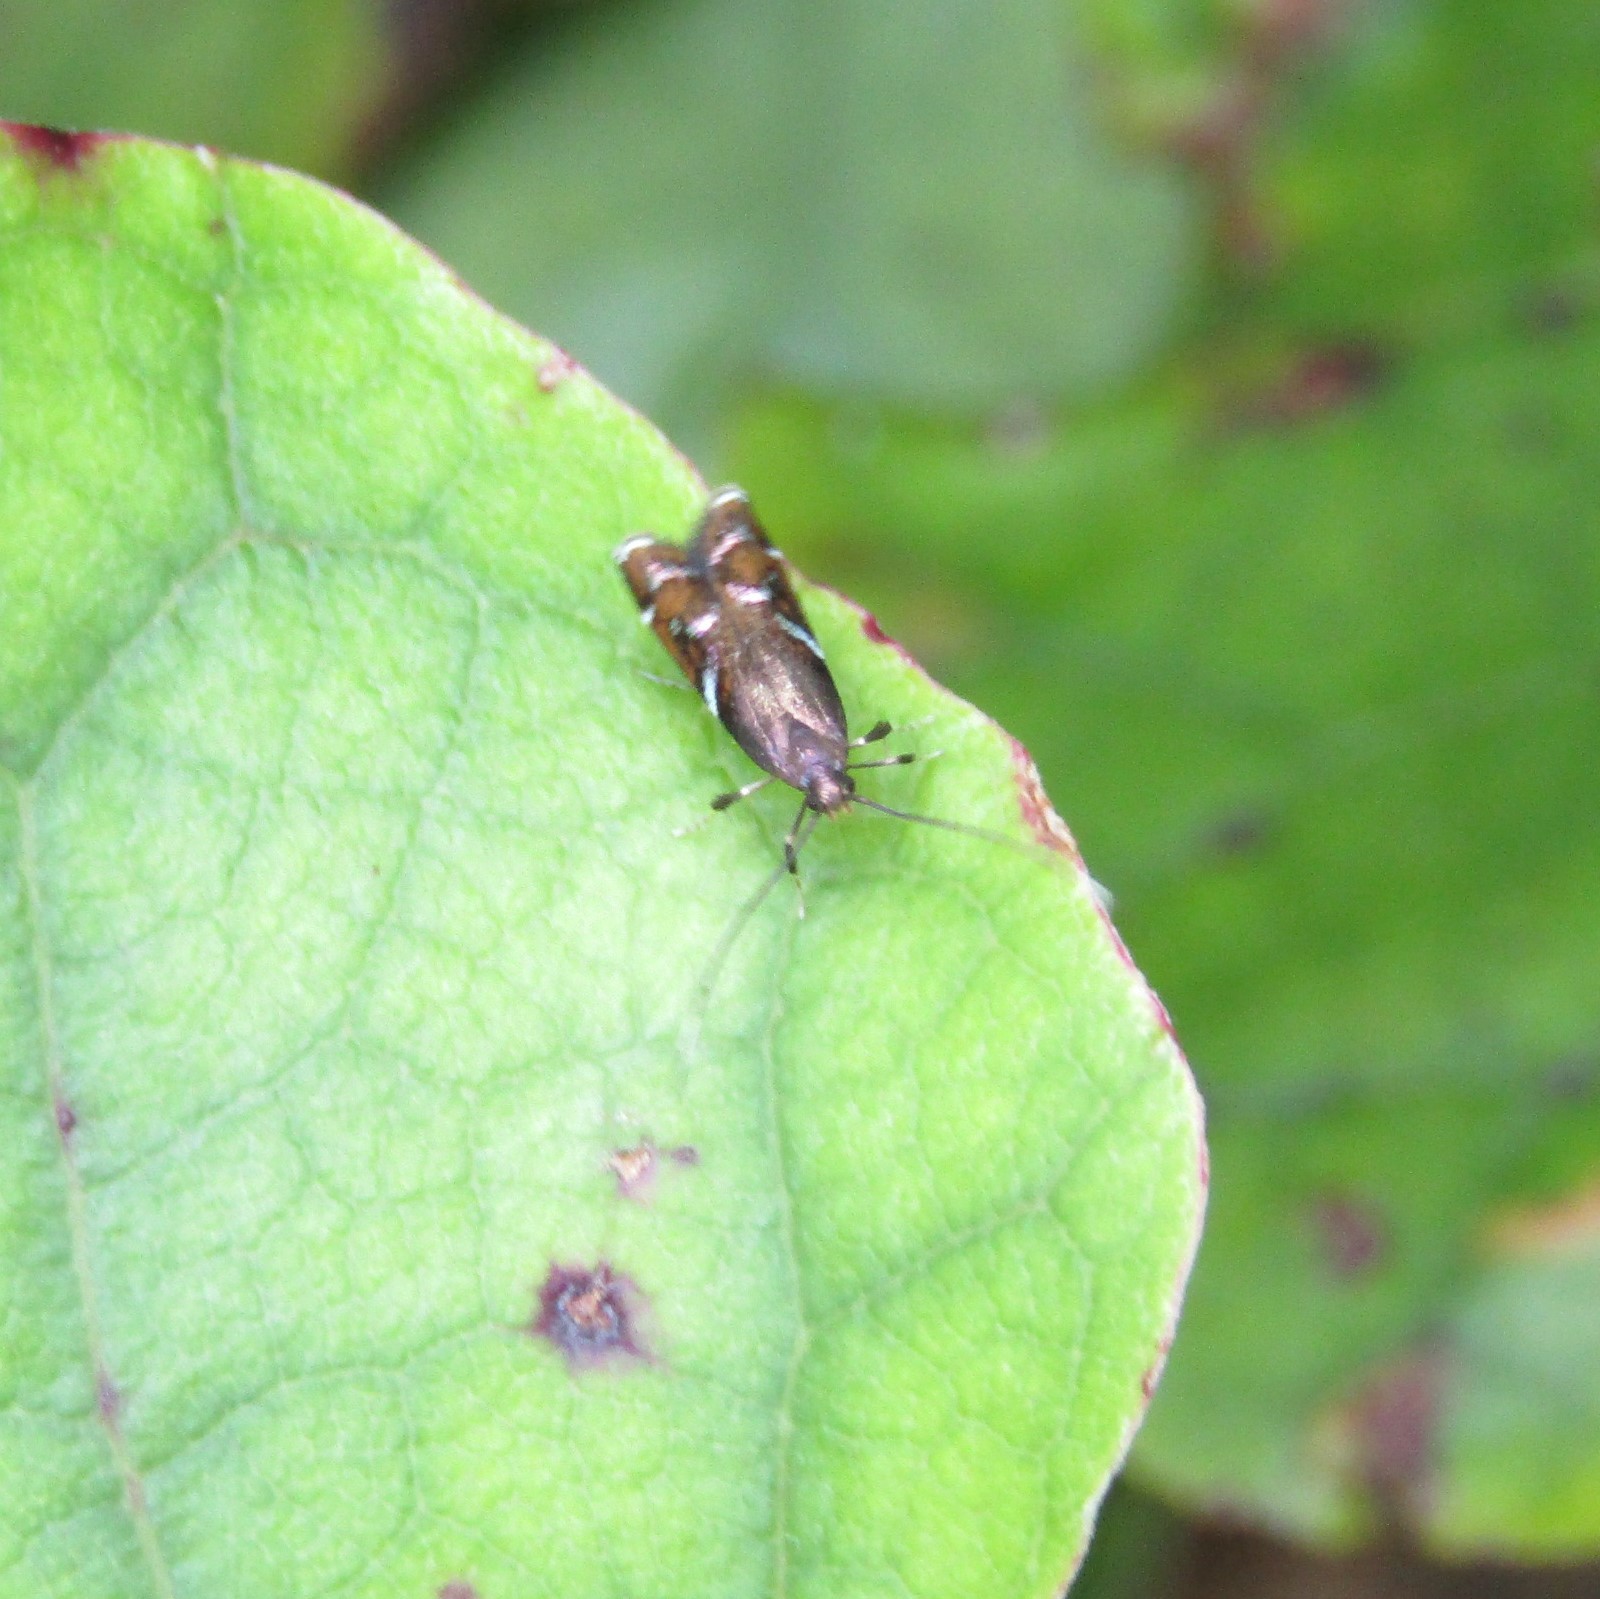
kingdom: Animalia
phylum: Arthropoda
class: Insecta
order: Lepidoptera
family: Depressariidae
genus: Compsistis
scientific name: Compsistis bifaciella
